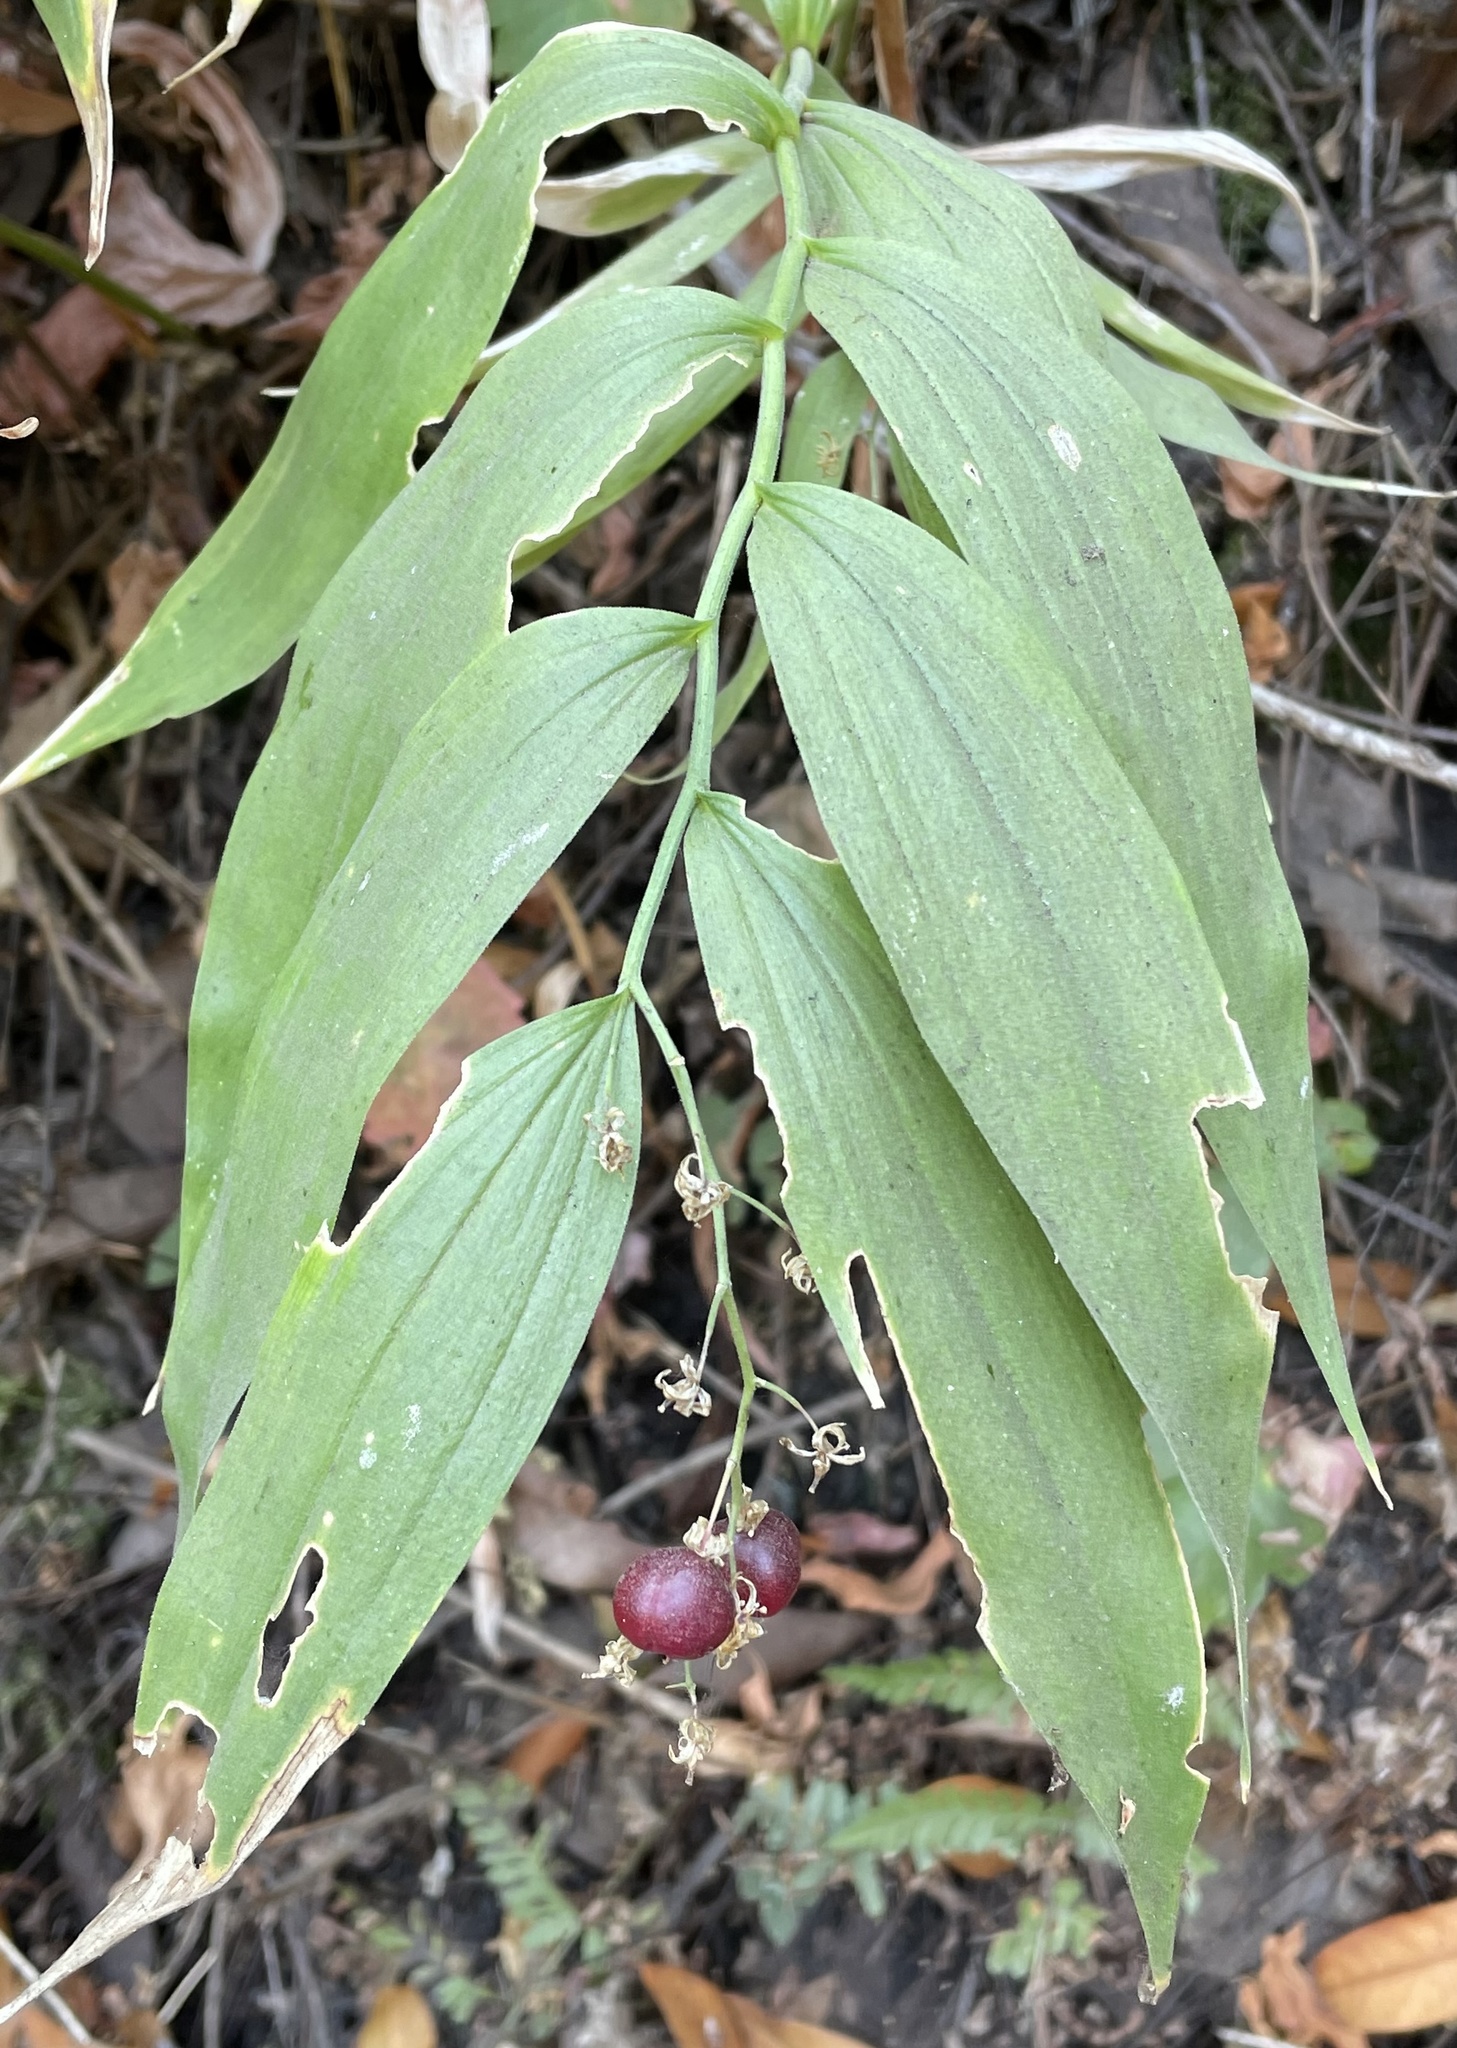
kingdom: Plantae
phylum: Tracheophyta
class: Liliopsida
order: Asparagales
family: Asparagaceae
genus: Maianthemum
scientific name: Maianthemum stellatum
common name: Little false solomon's seal
